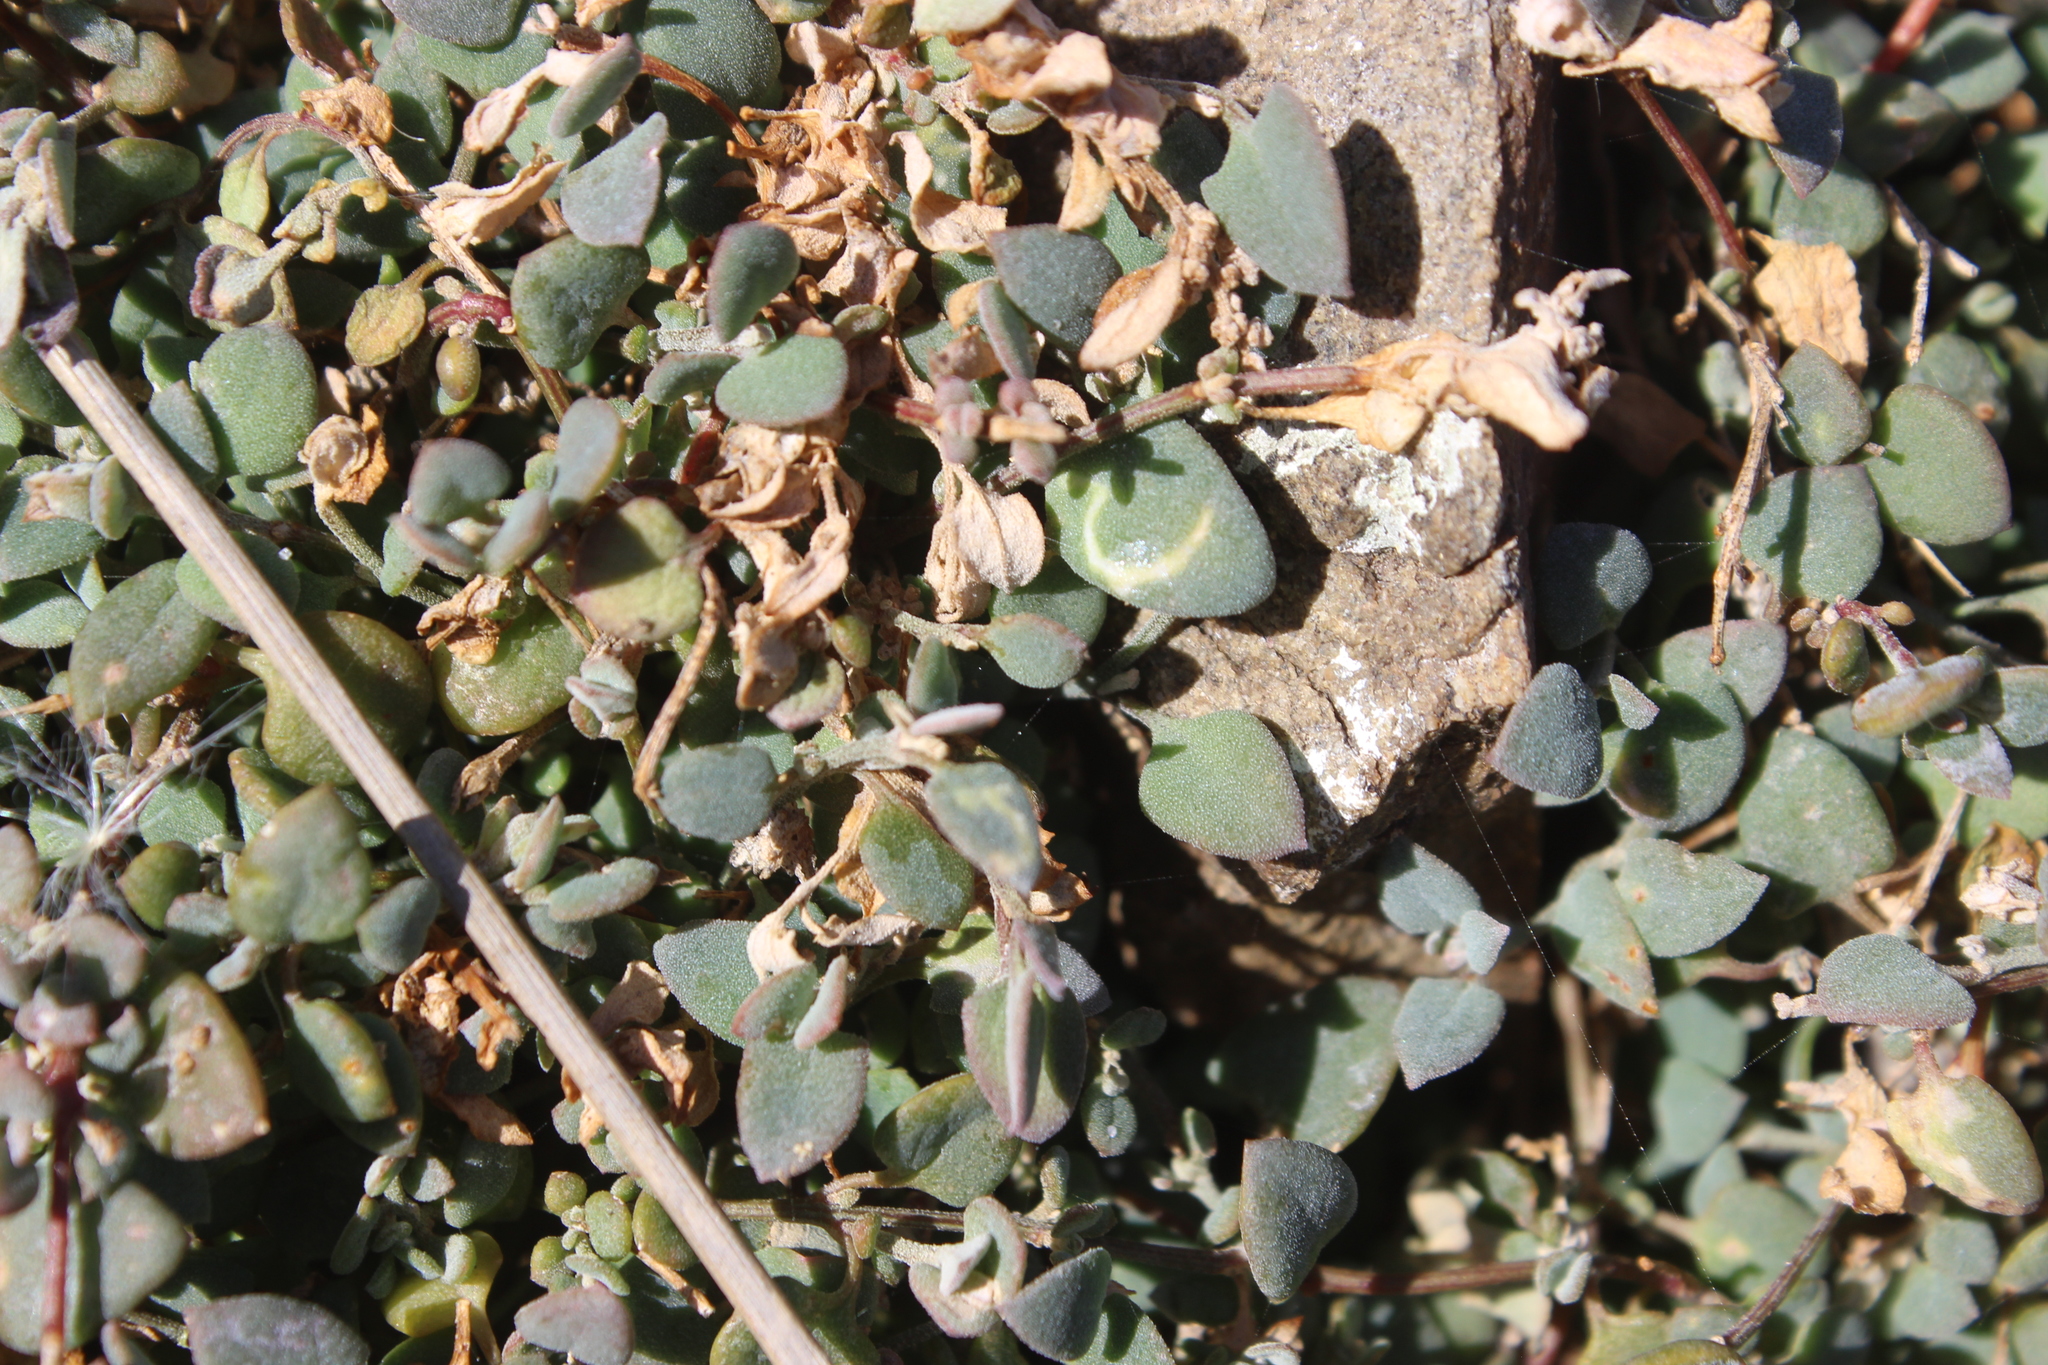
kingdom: Plantae
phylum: Tracheophyta
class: Magnoliopsida
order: Caryophyllales
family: Amaranthaceae
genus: Chenopodium
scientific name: Chenopodium triandrum
